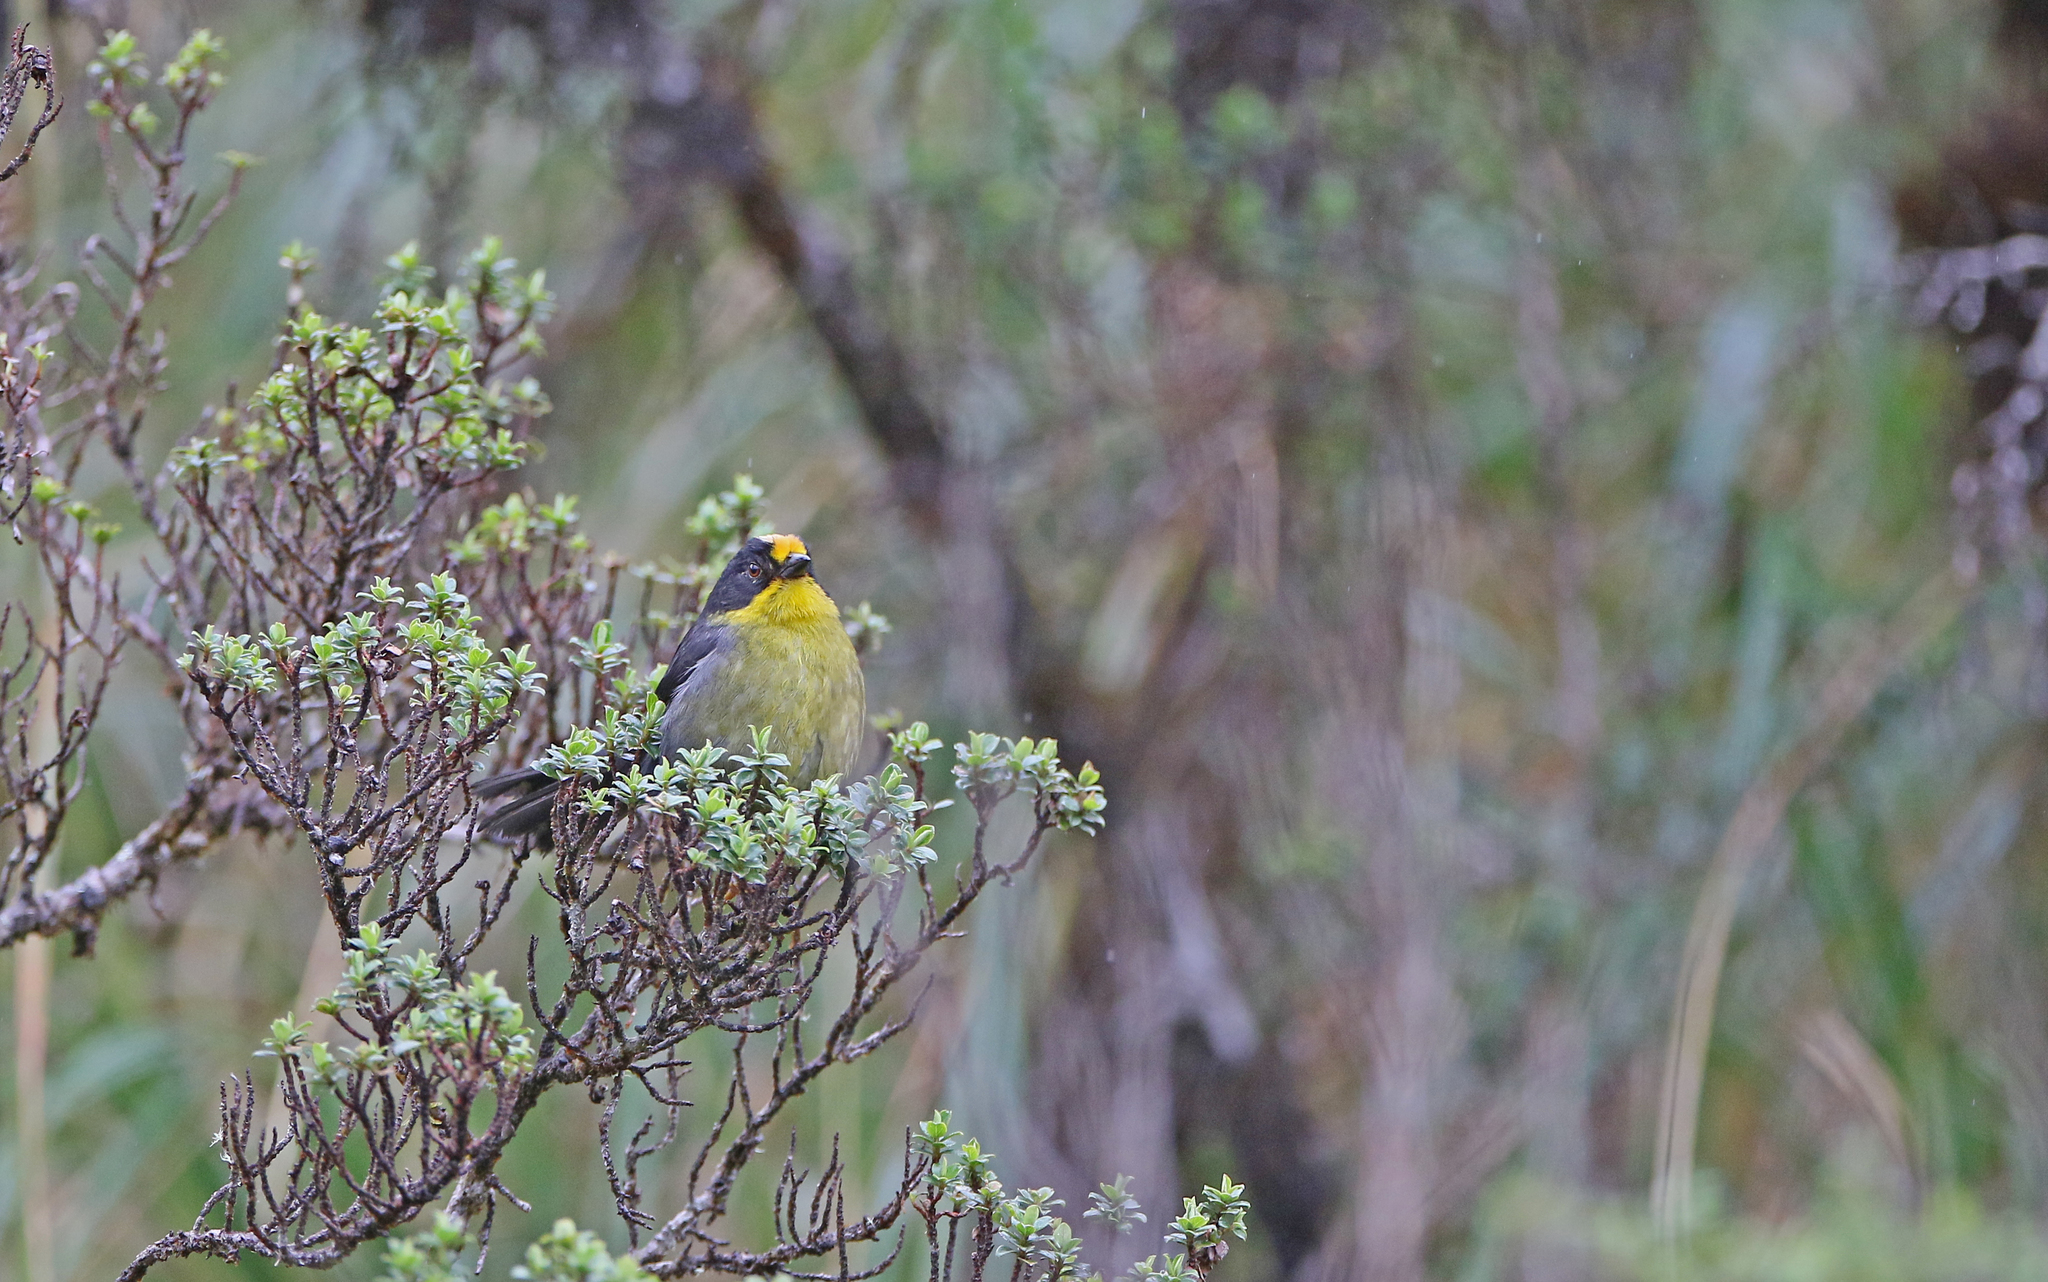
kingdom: Animalia
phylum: Chordata
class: Aves
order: Passeriformes
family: Passerellidae
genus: Atlapetes
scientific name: Atlapetes pallidinucha
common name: Pale-naped brushfinch
